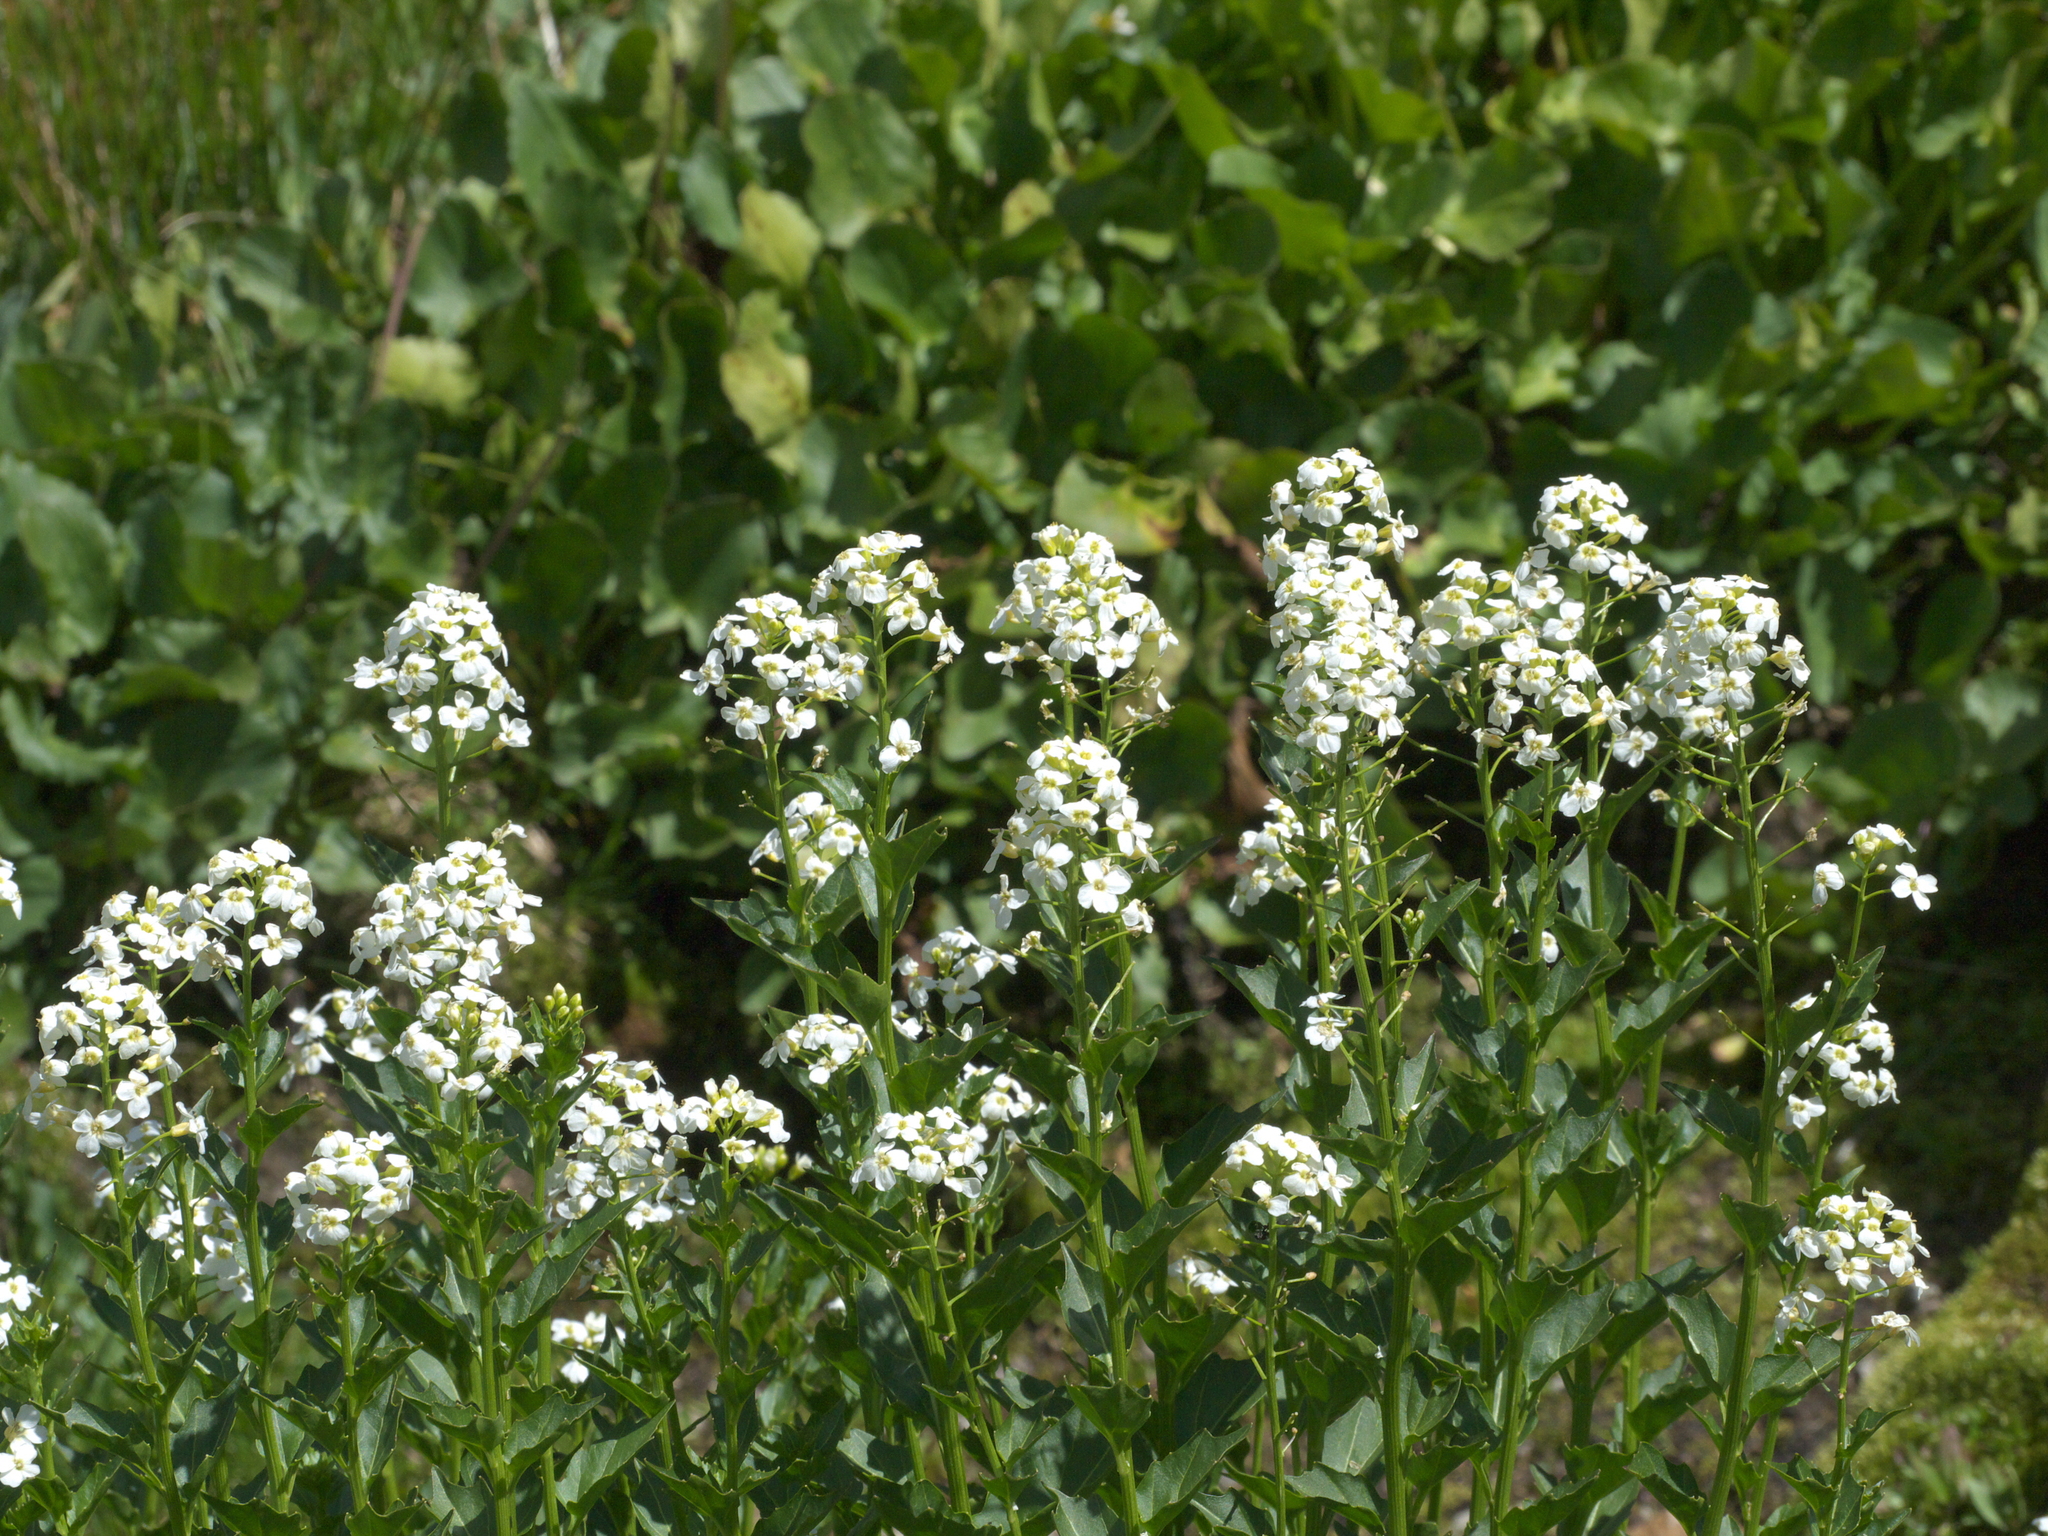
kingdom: Plantae
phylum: Tracheophyta
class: Magnoliopsida
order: Brassicales
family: Brassicaceae
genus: Cardamine
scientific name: Cardamine cordifolia
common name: Heart-leaf bittercress
